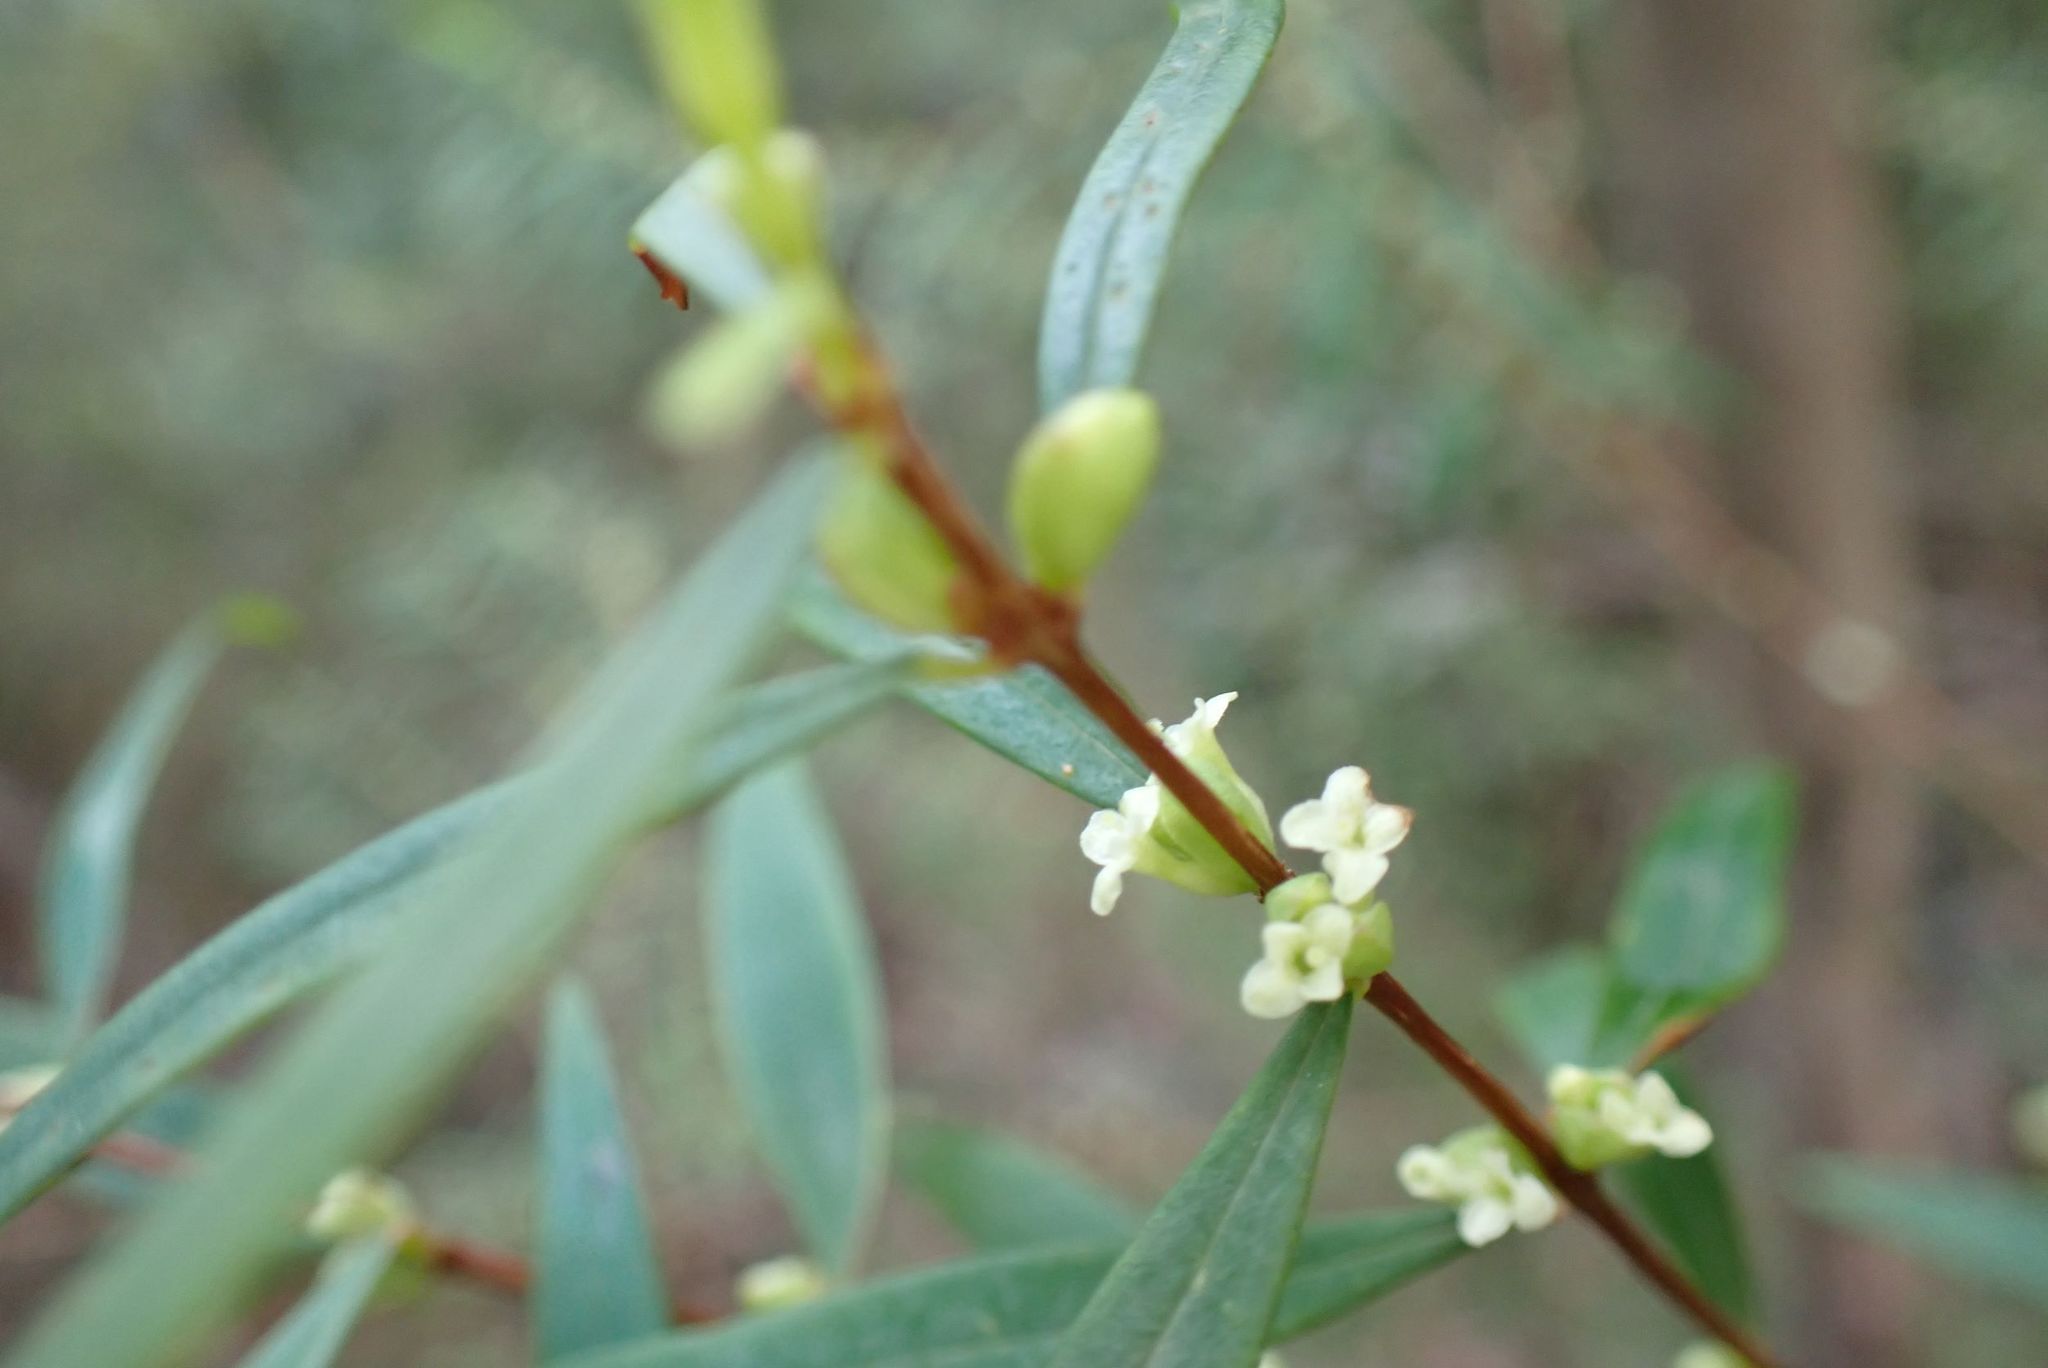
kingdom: Plantae
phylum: Tracheophyta
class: Magnoliopsida
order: Malvales
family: Thymelaeaceae
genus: Pimelea
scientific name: Pimelea axiflora
